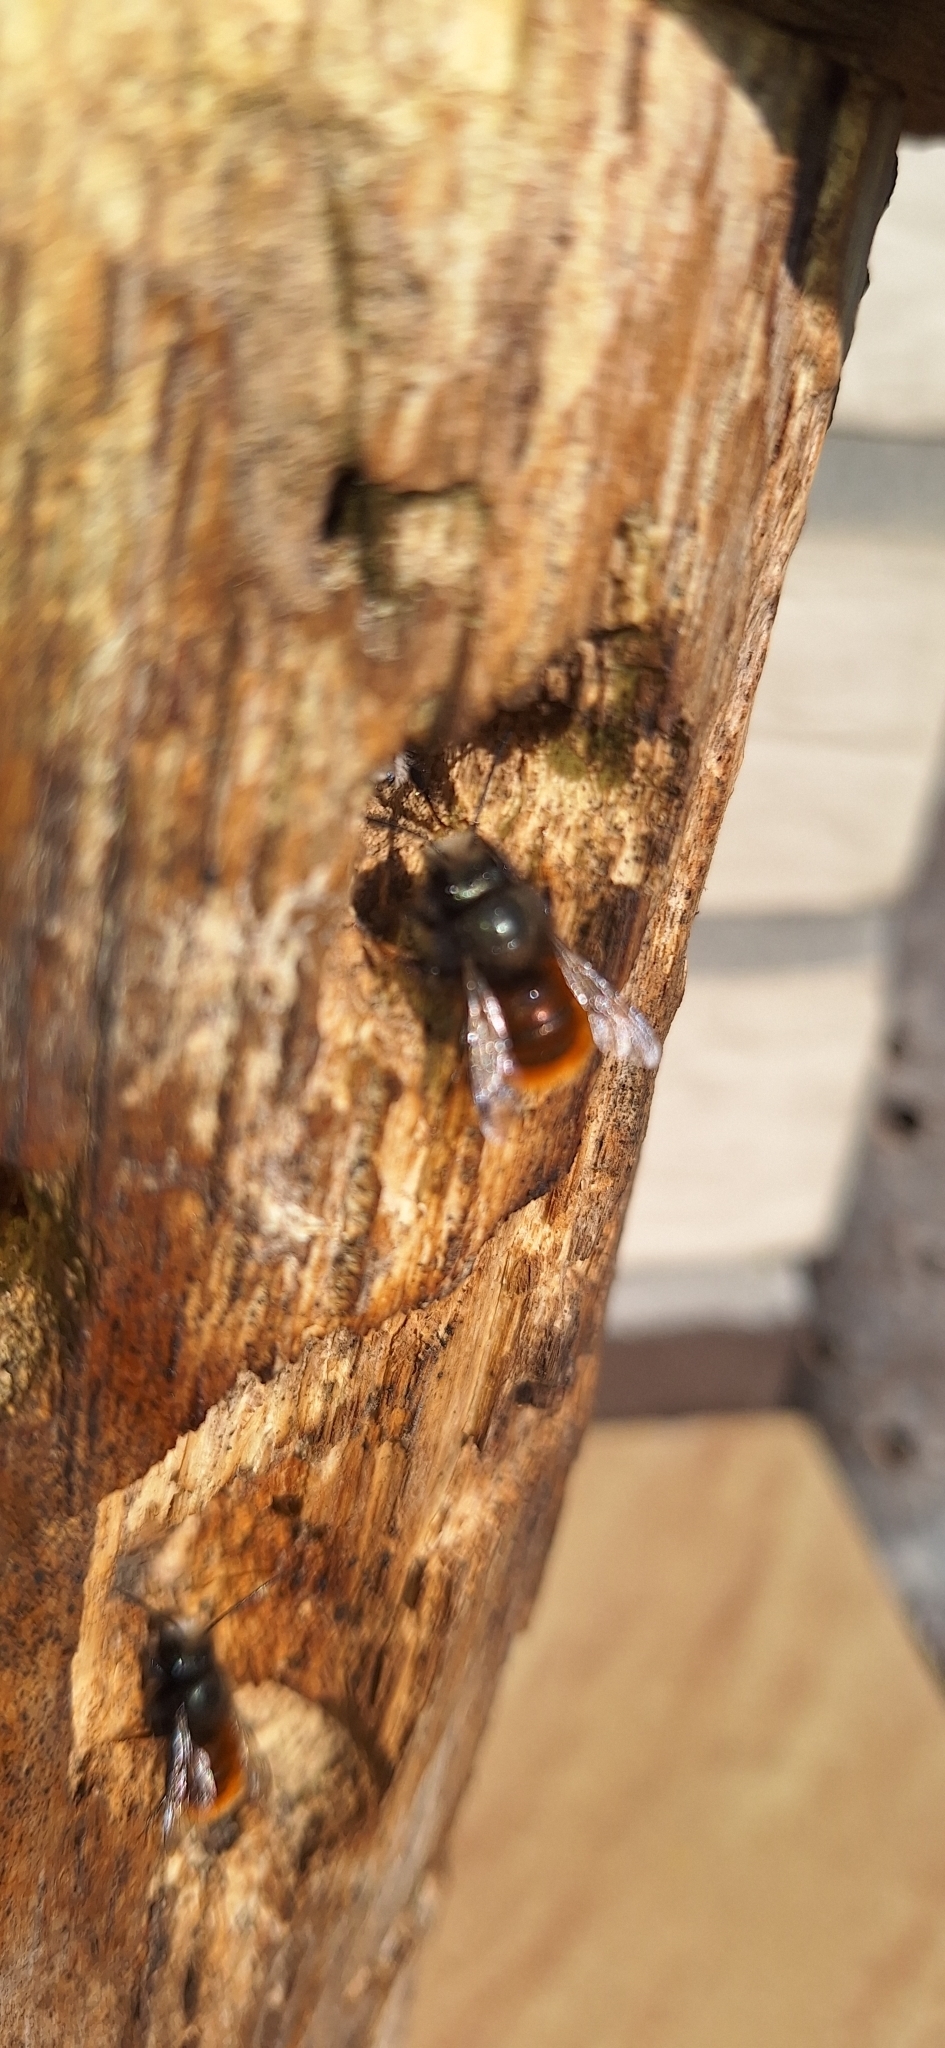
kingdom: Animalia
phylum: Arthropoda
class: Insecta
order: Hymenoptera
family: Megachilidae
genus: Osmia
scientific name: Osmia cornuta
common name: Mason bee
